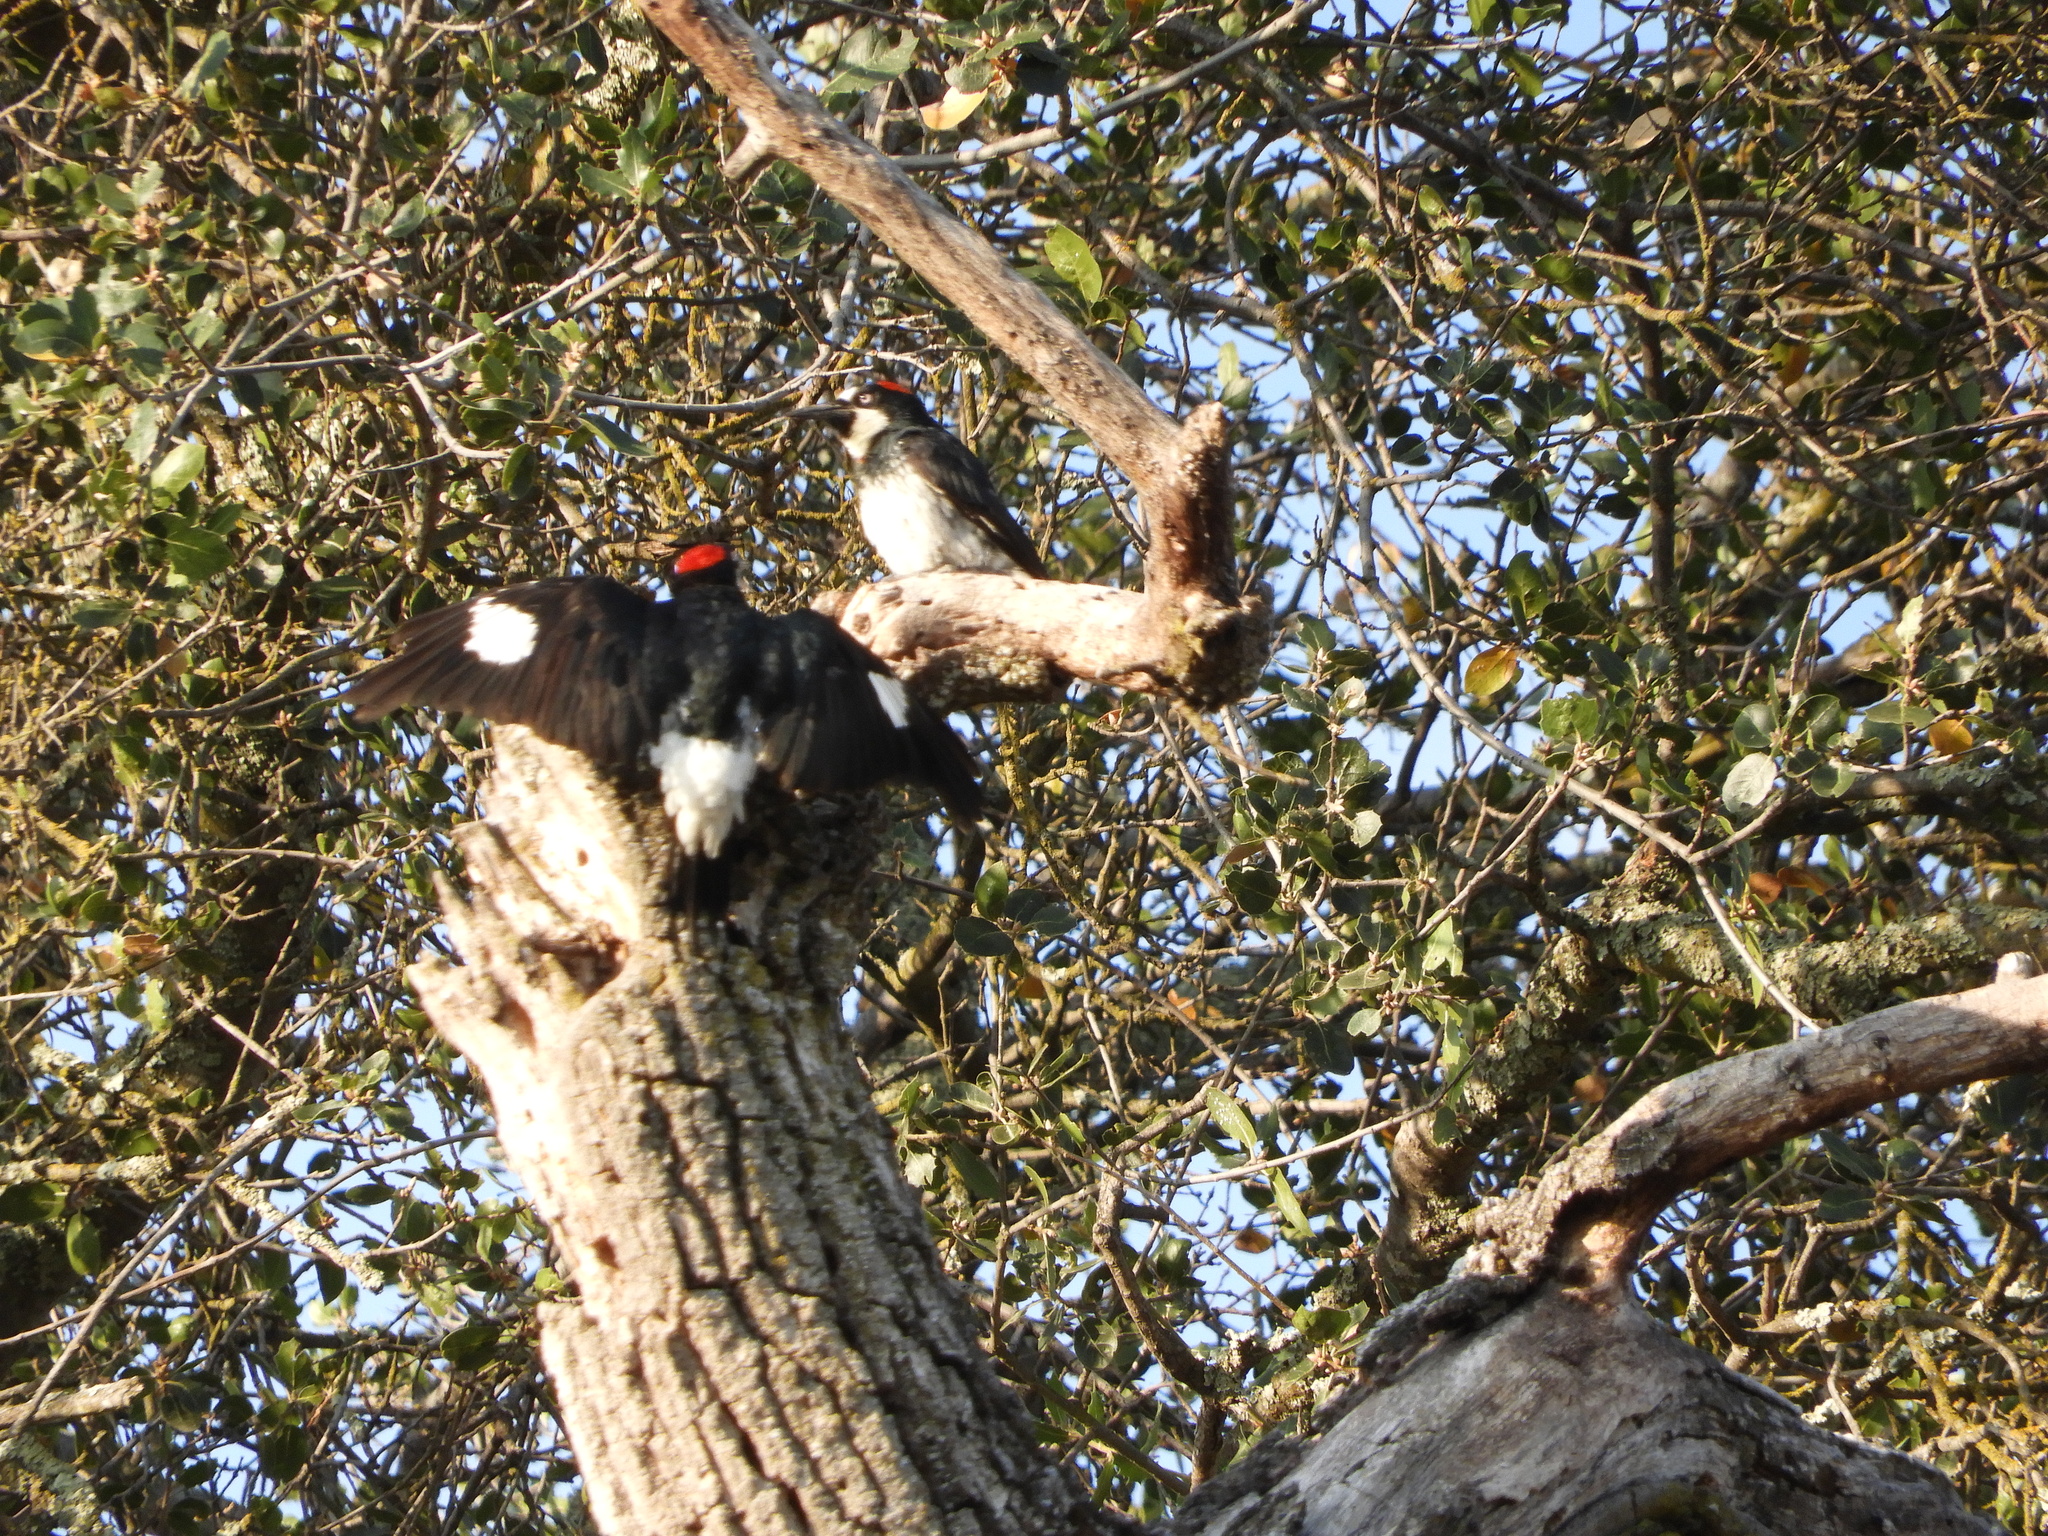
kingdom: Animalia
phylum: Chordata
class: Aves
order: Piciformes
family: Picidae
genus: Melanerpes
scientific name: Melanerpes formicivorus
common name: Acorn woodpecker
